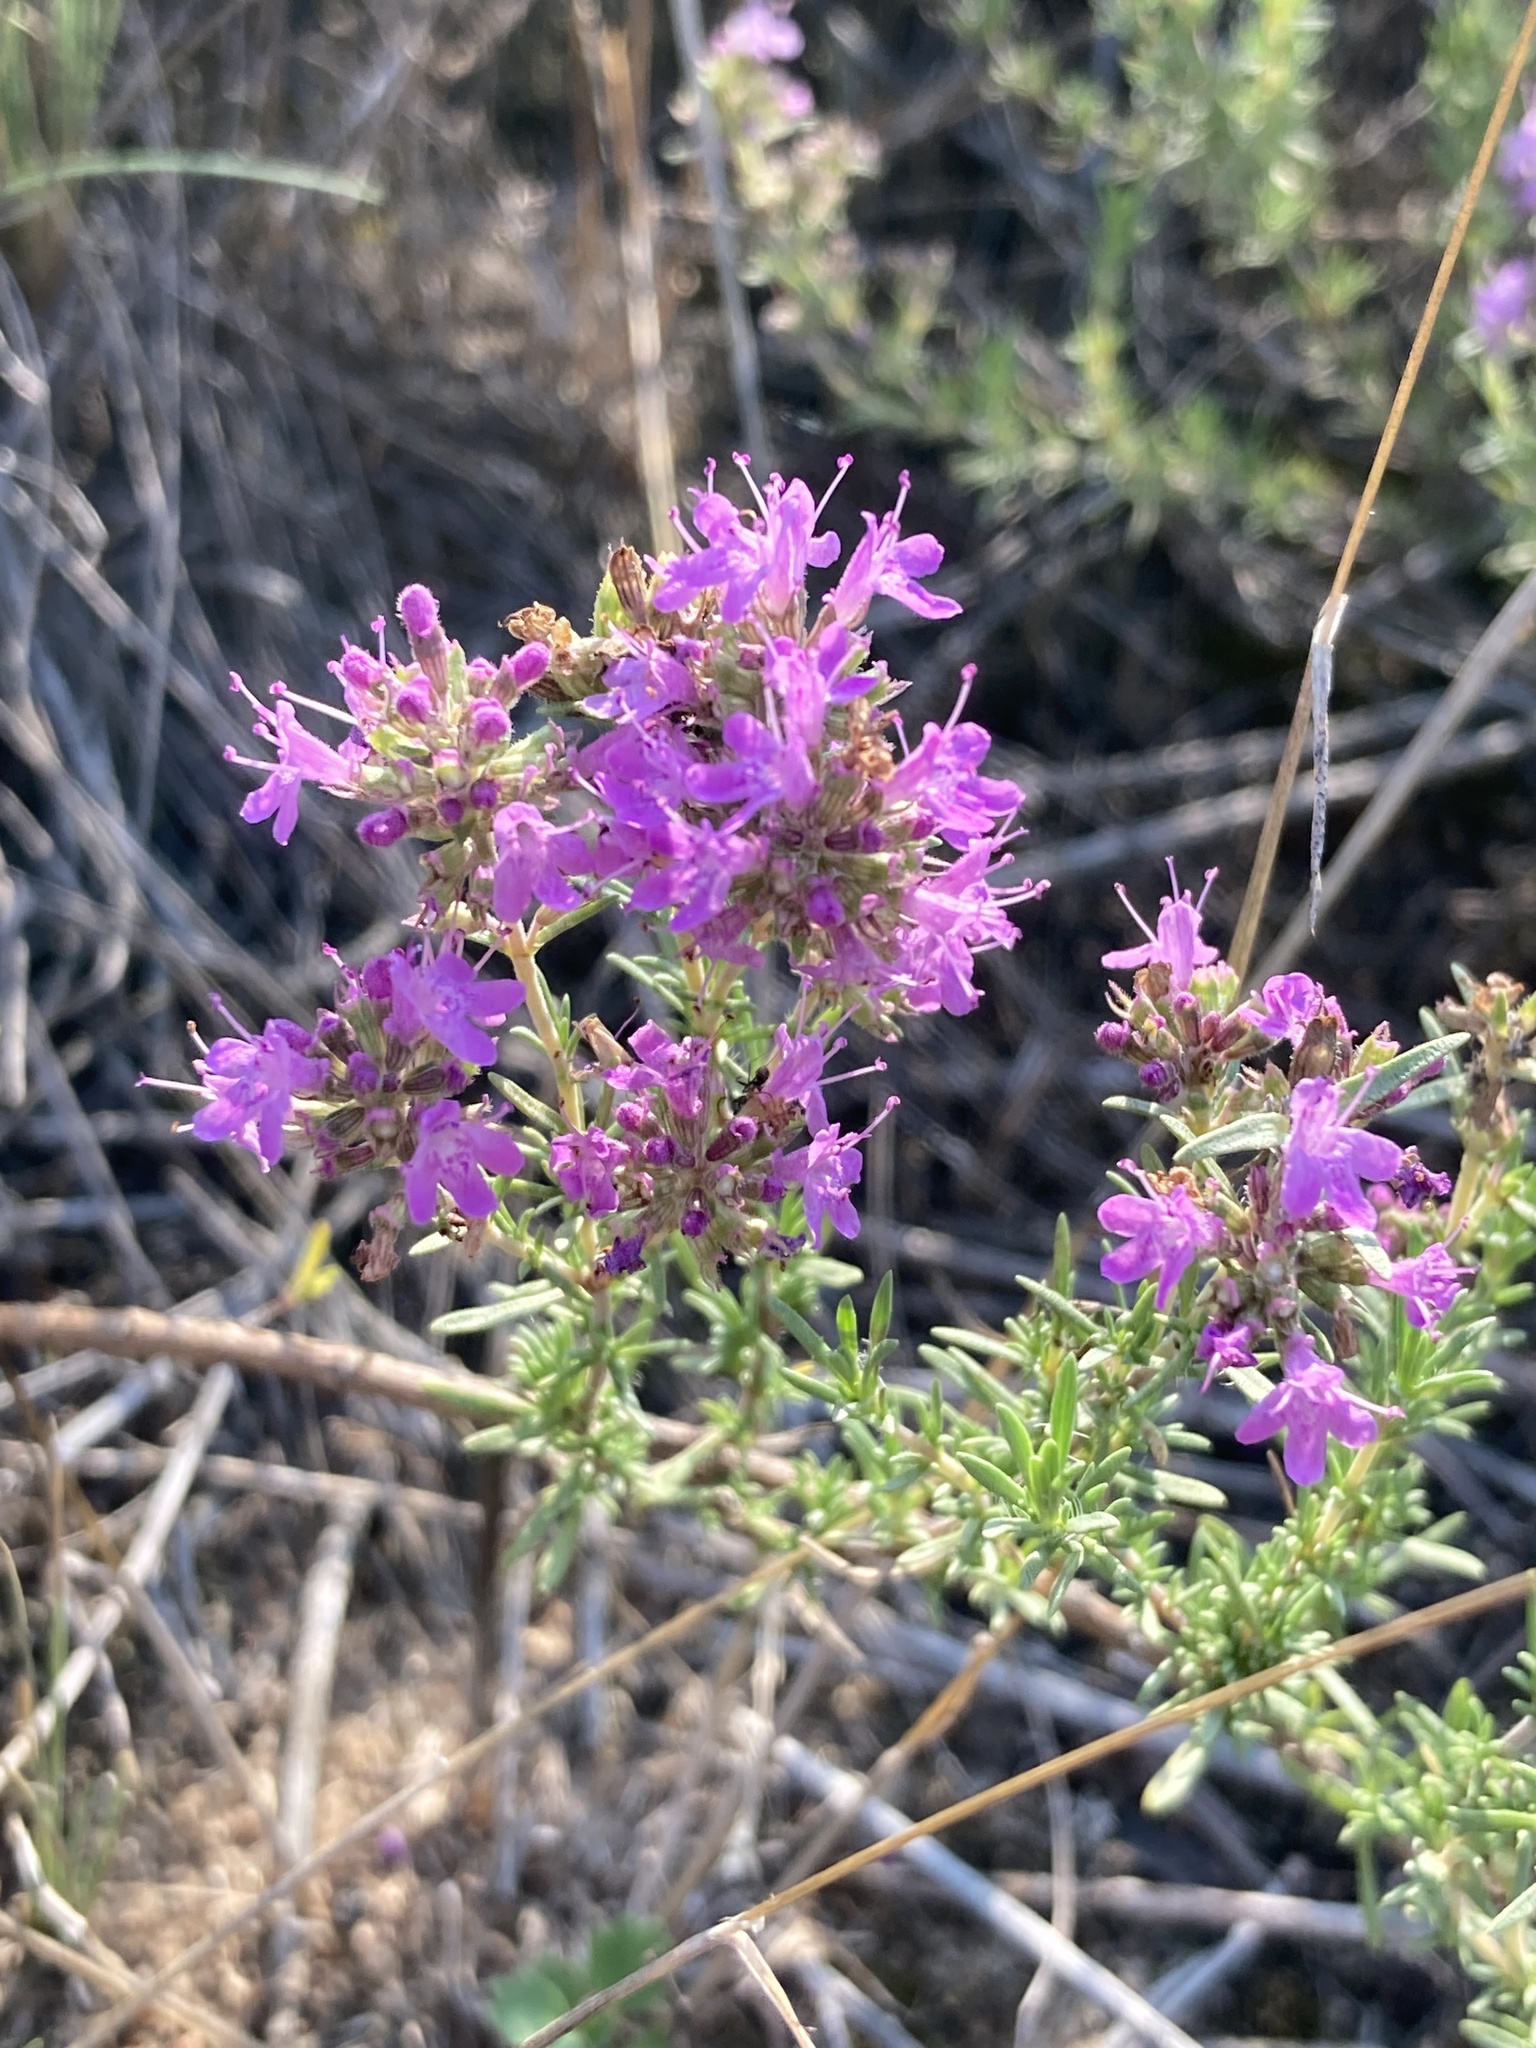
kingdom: Plantae
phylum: Tracheophyta
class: Magnoliopsida
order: Lamiales
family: Lamiaceae
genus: Thymus
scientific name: Thymus pallasianus
